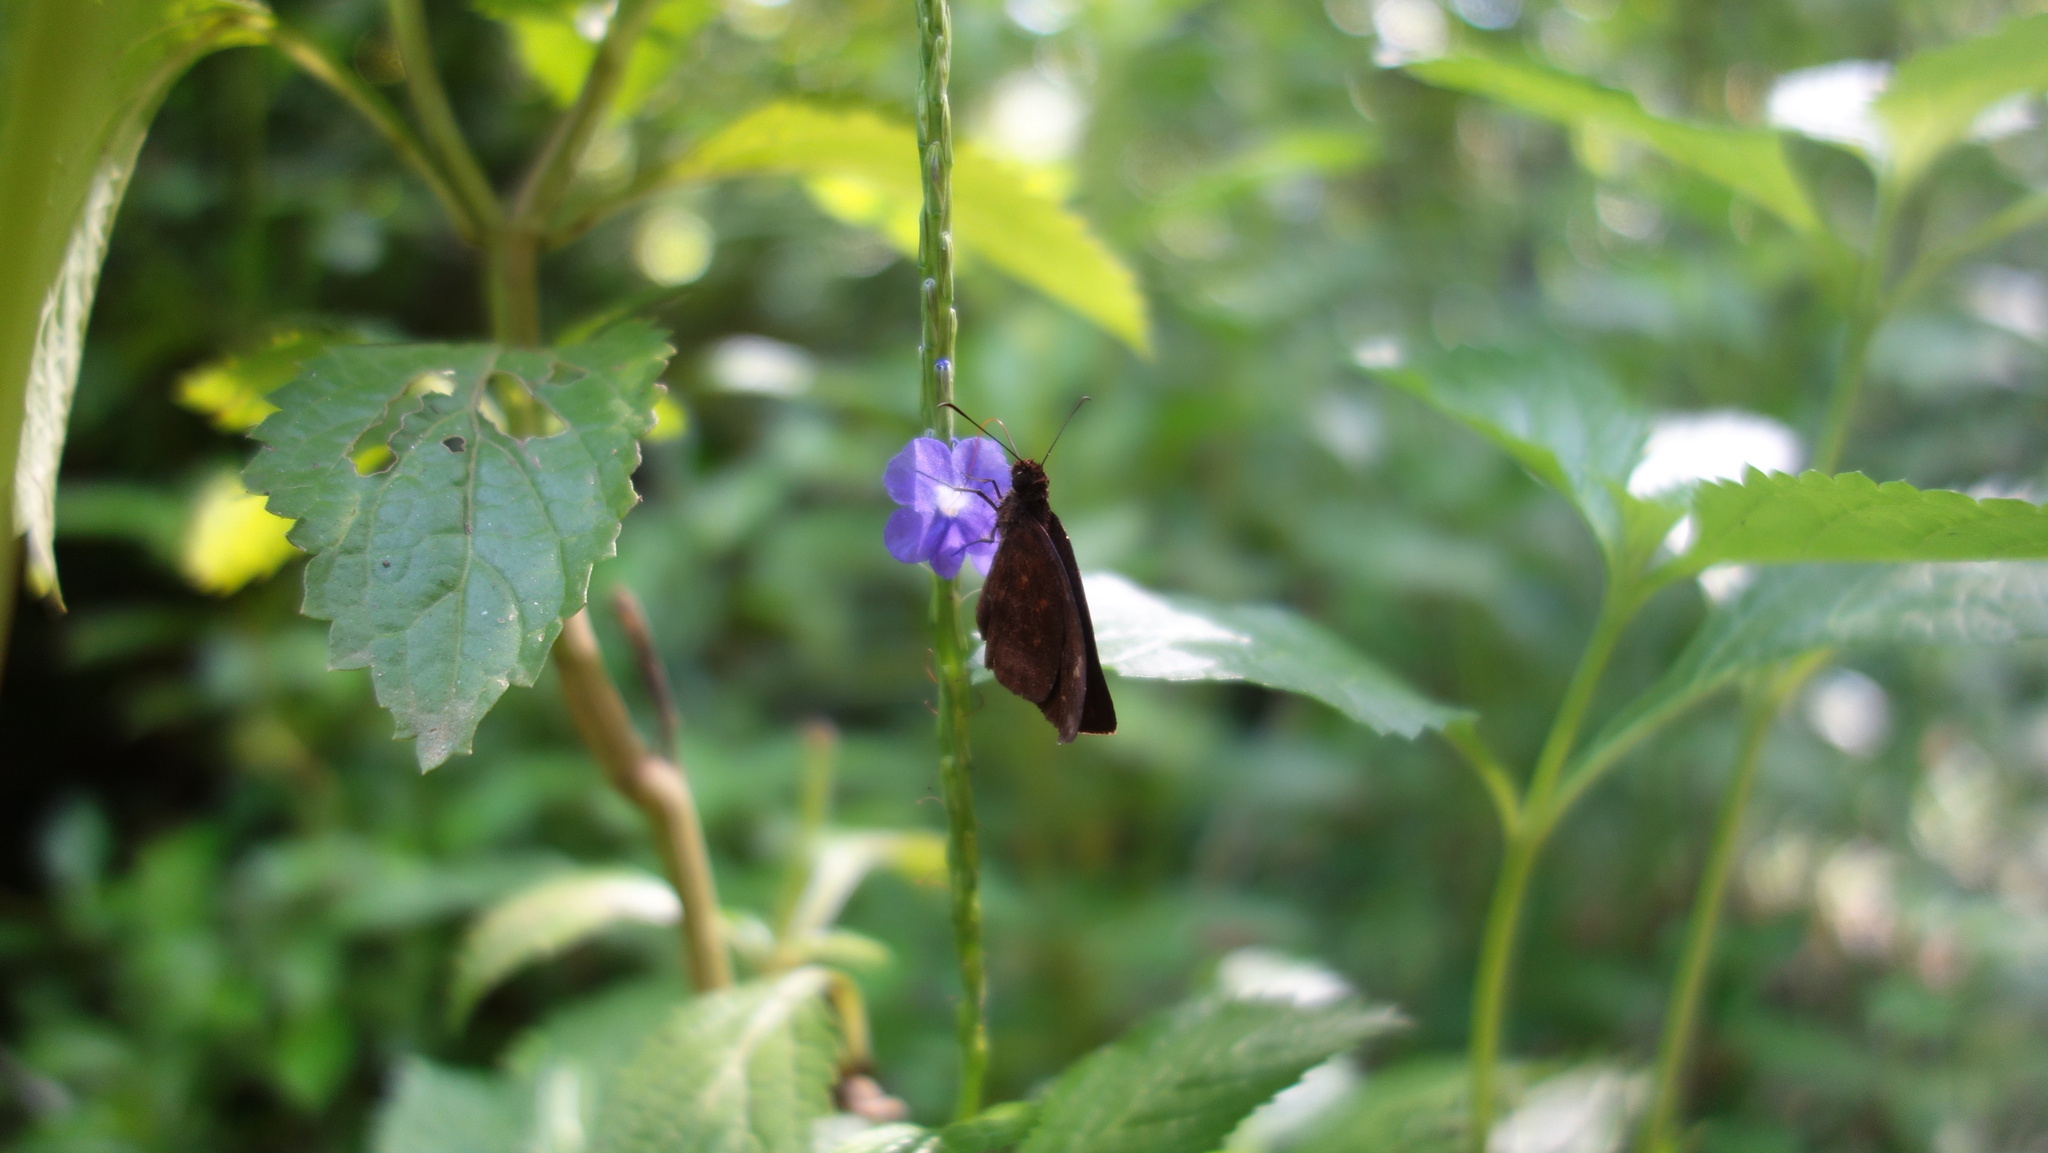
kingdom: Animalia
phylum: Arthropoda
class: Insecta
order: Lepidoptera
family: Hesperiidae
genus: Psolos
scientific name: Psolos fuligo
